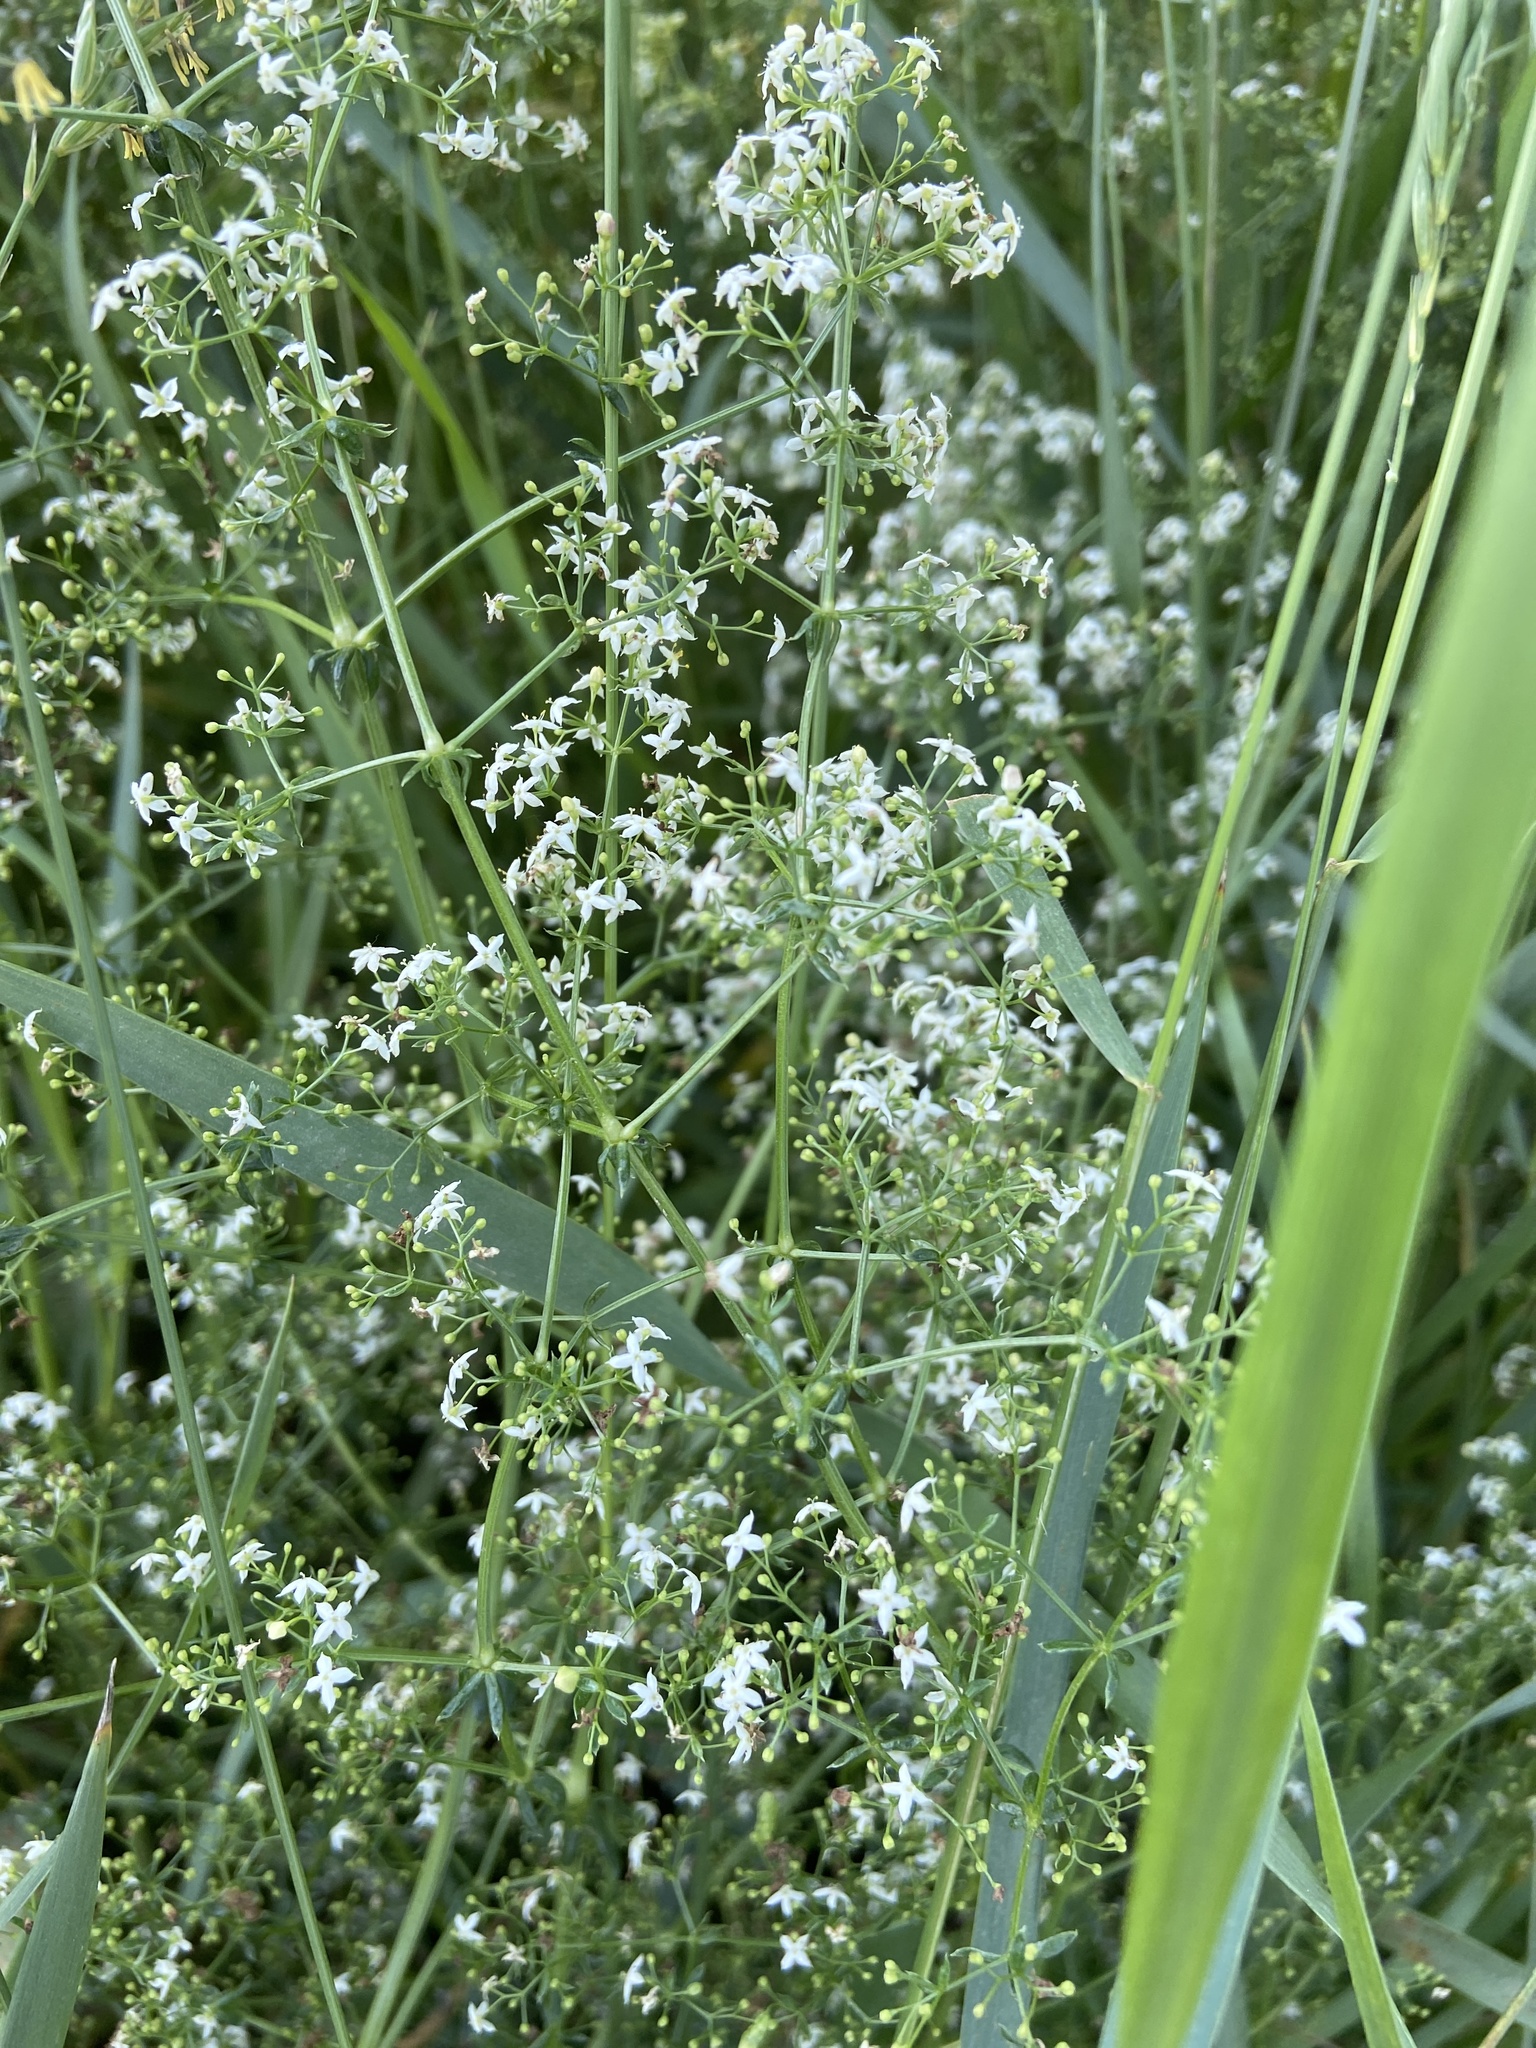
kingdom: Plantae
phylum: Tracheophyta
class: Magnoliopsida
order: Gentianales
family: Rubiaceae
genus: Galium
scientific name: Galium album
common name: White bedstraw
